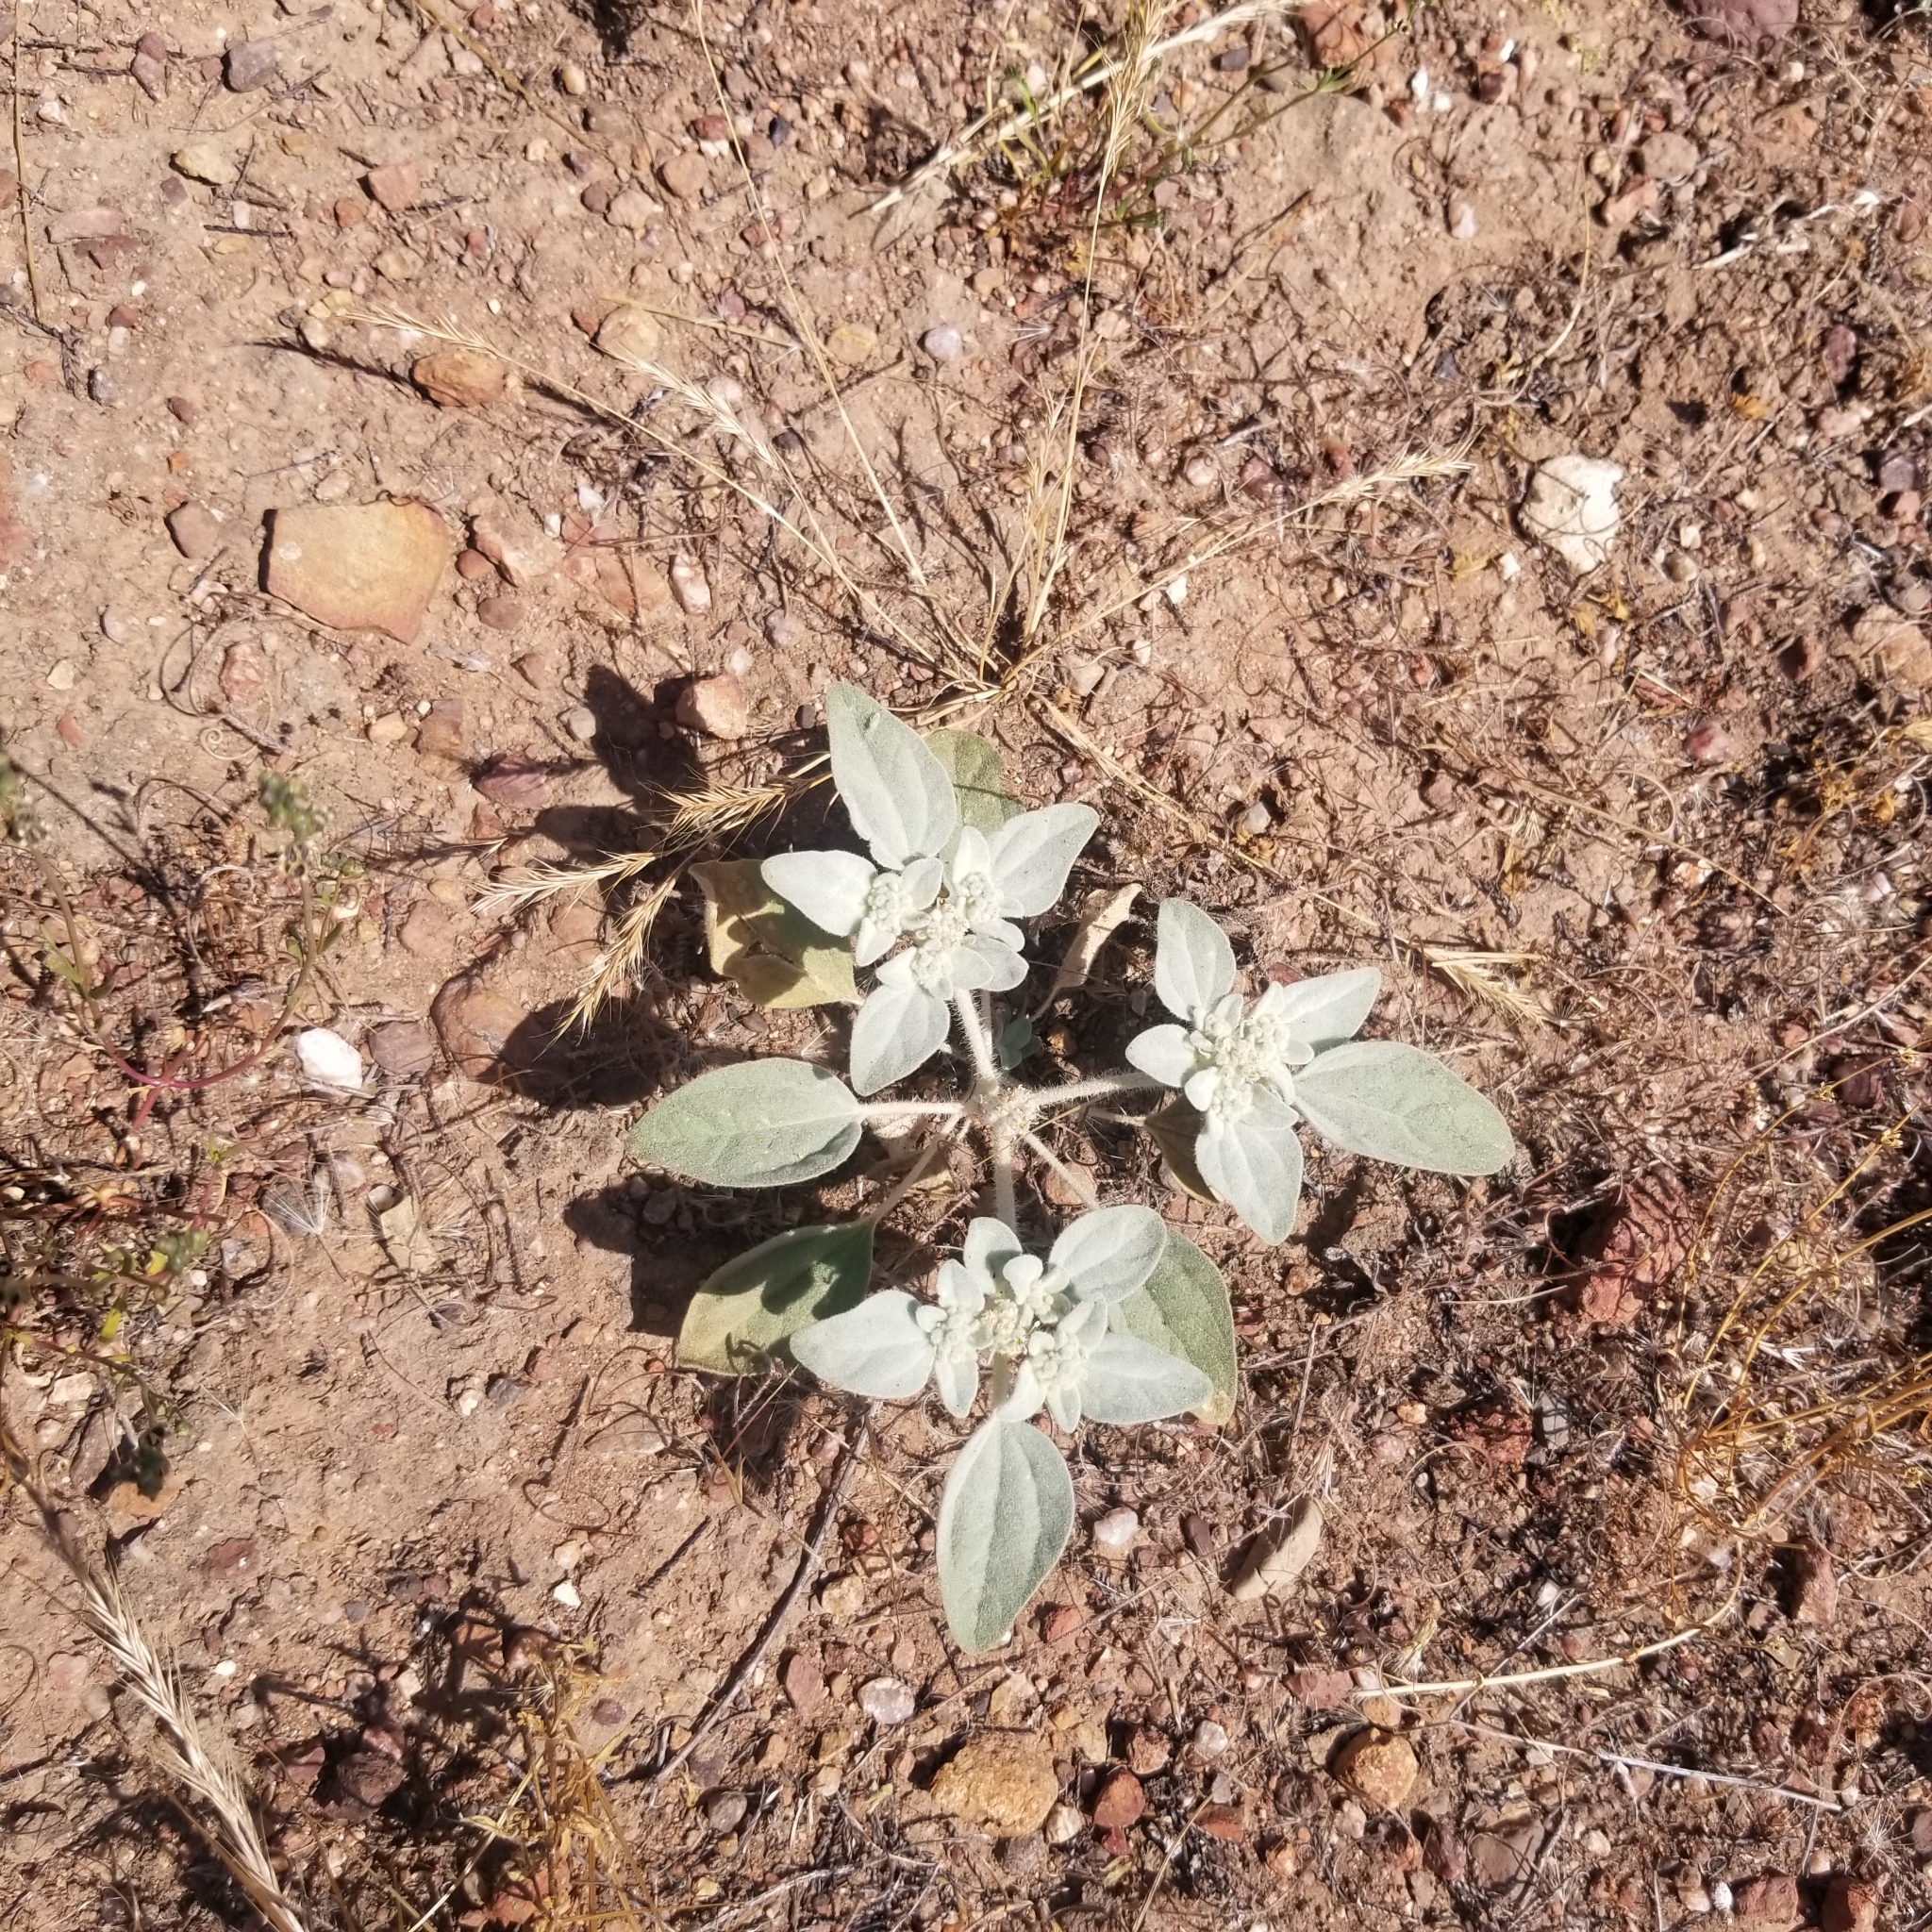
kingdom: Plantae
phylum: Tracheophyta
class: Magnoliopsida
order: Malpighiales
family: Euphorbiaceae
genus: Croton
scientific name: Croton setiger
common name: Dove weed
